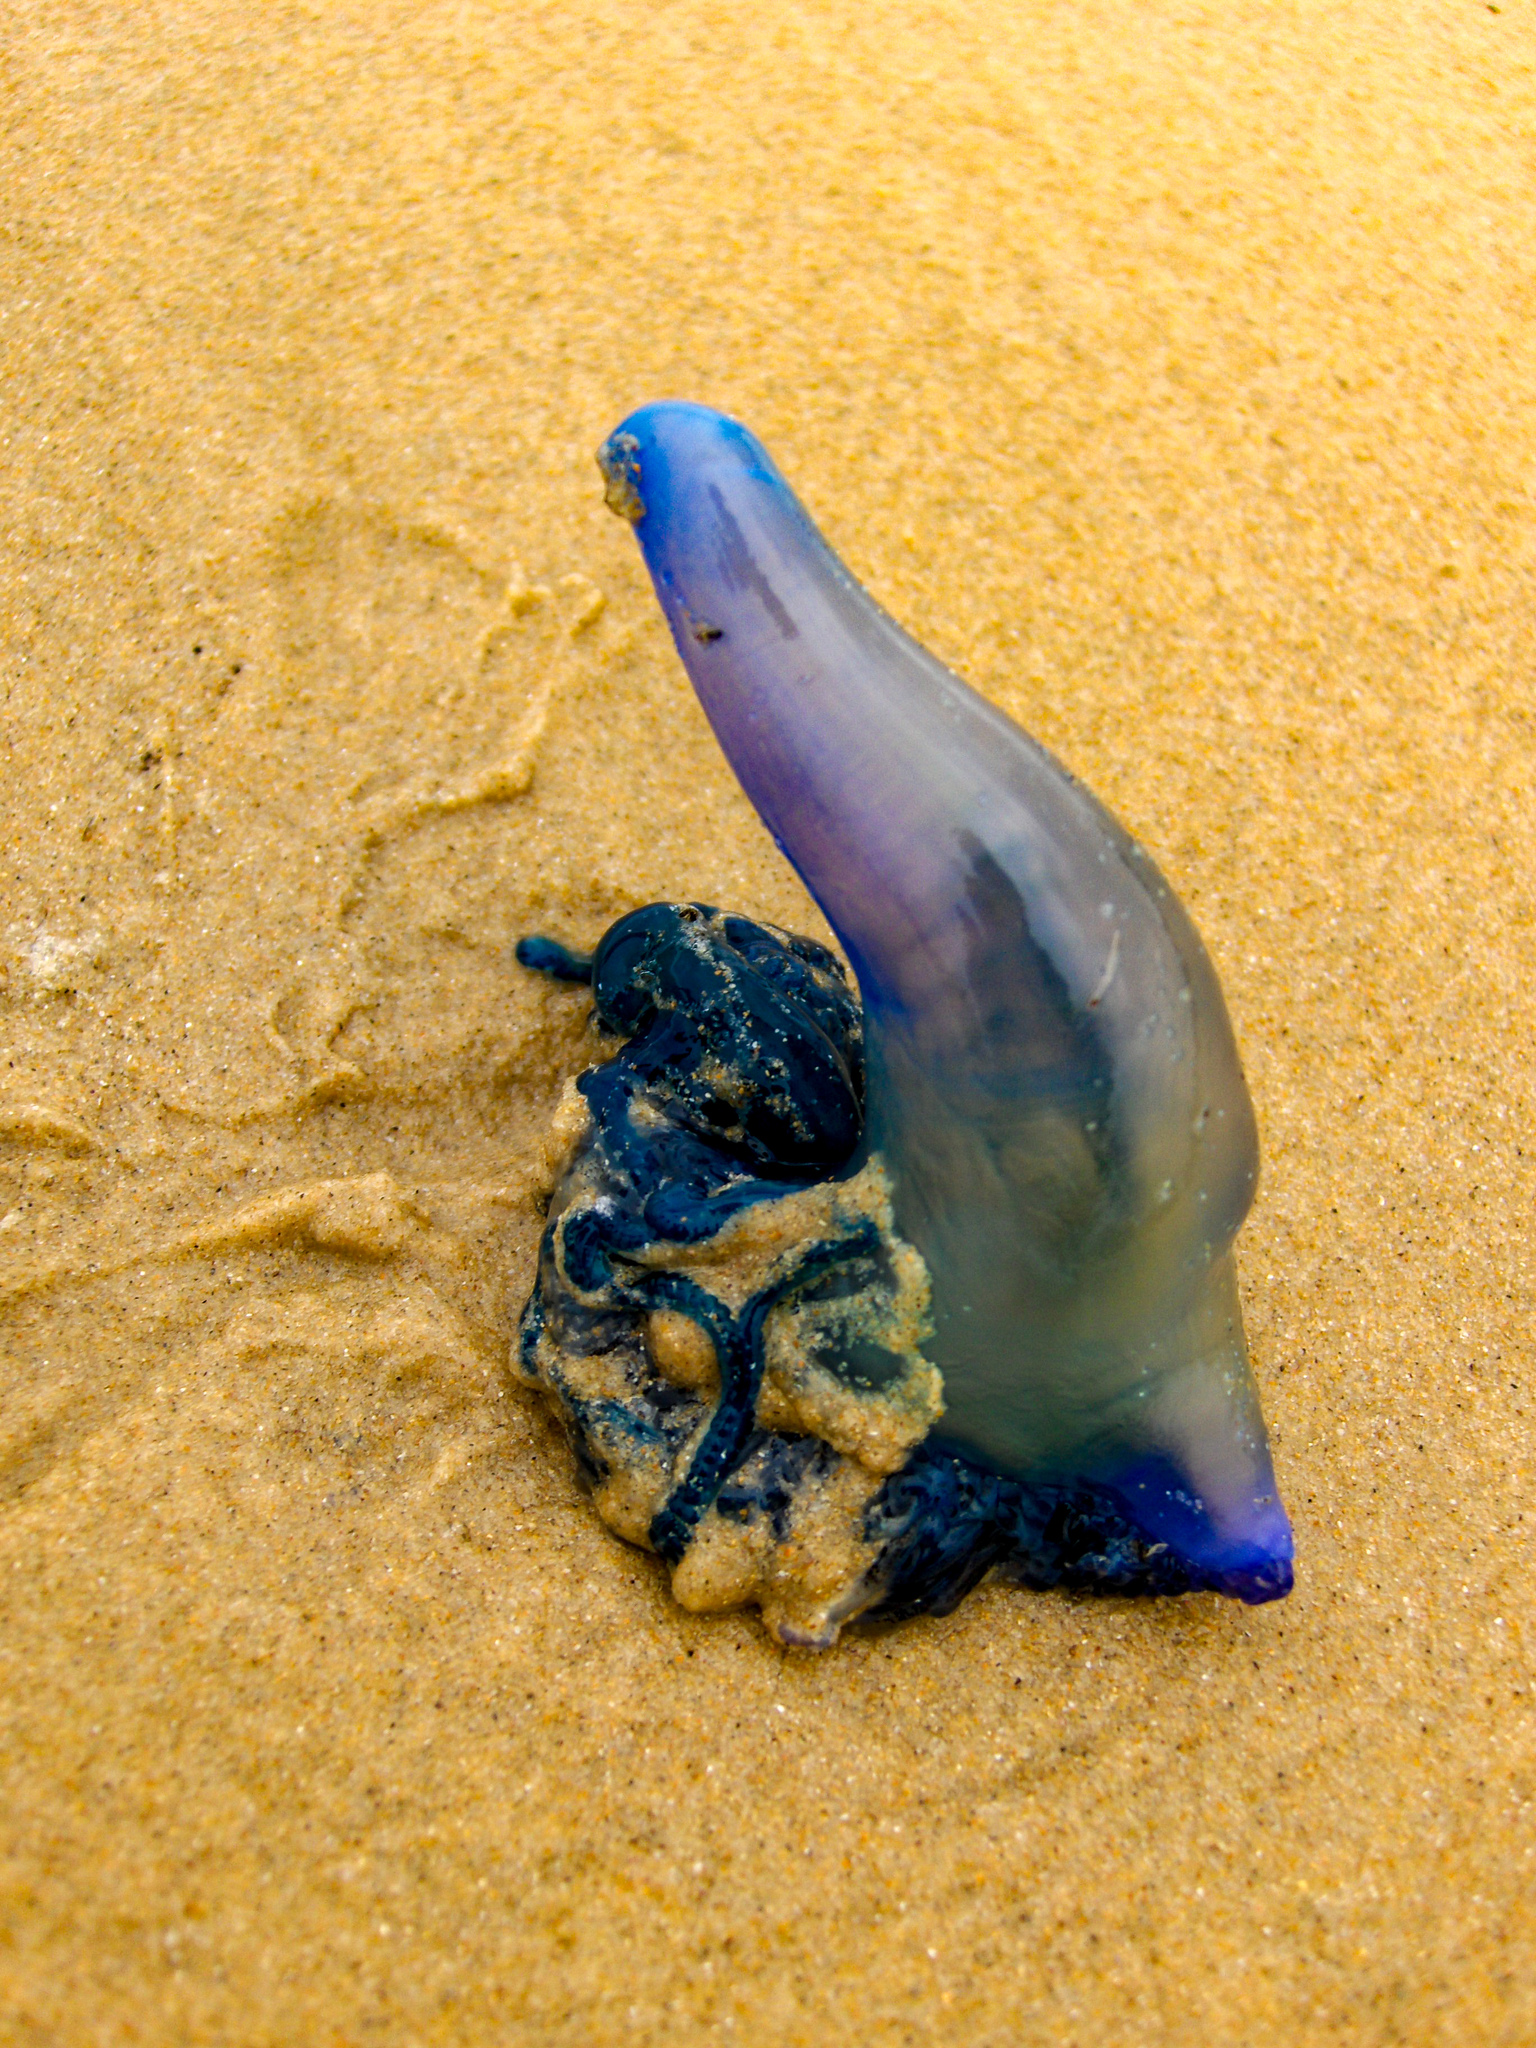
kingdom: Animalia
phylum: Cnidaria
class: Hydrozoa
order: Siphonophorae
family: Physaliidae
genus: Physalia
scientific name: Physalia physalis
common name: Portuguese man-of-war
